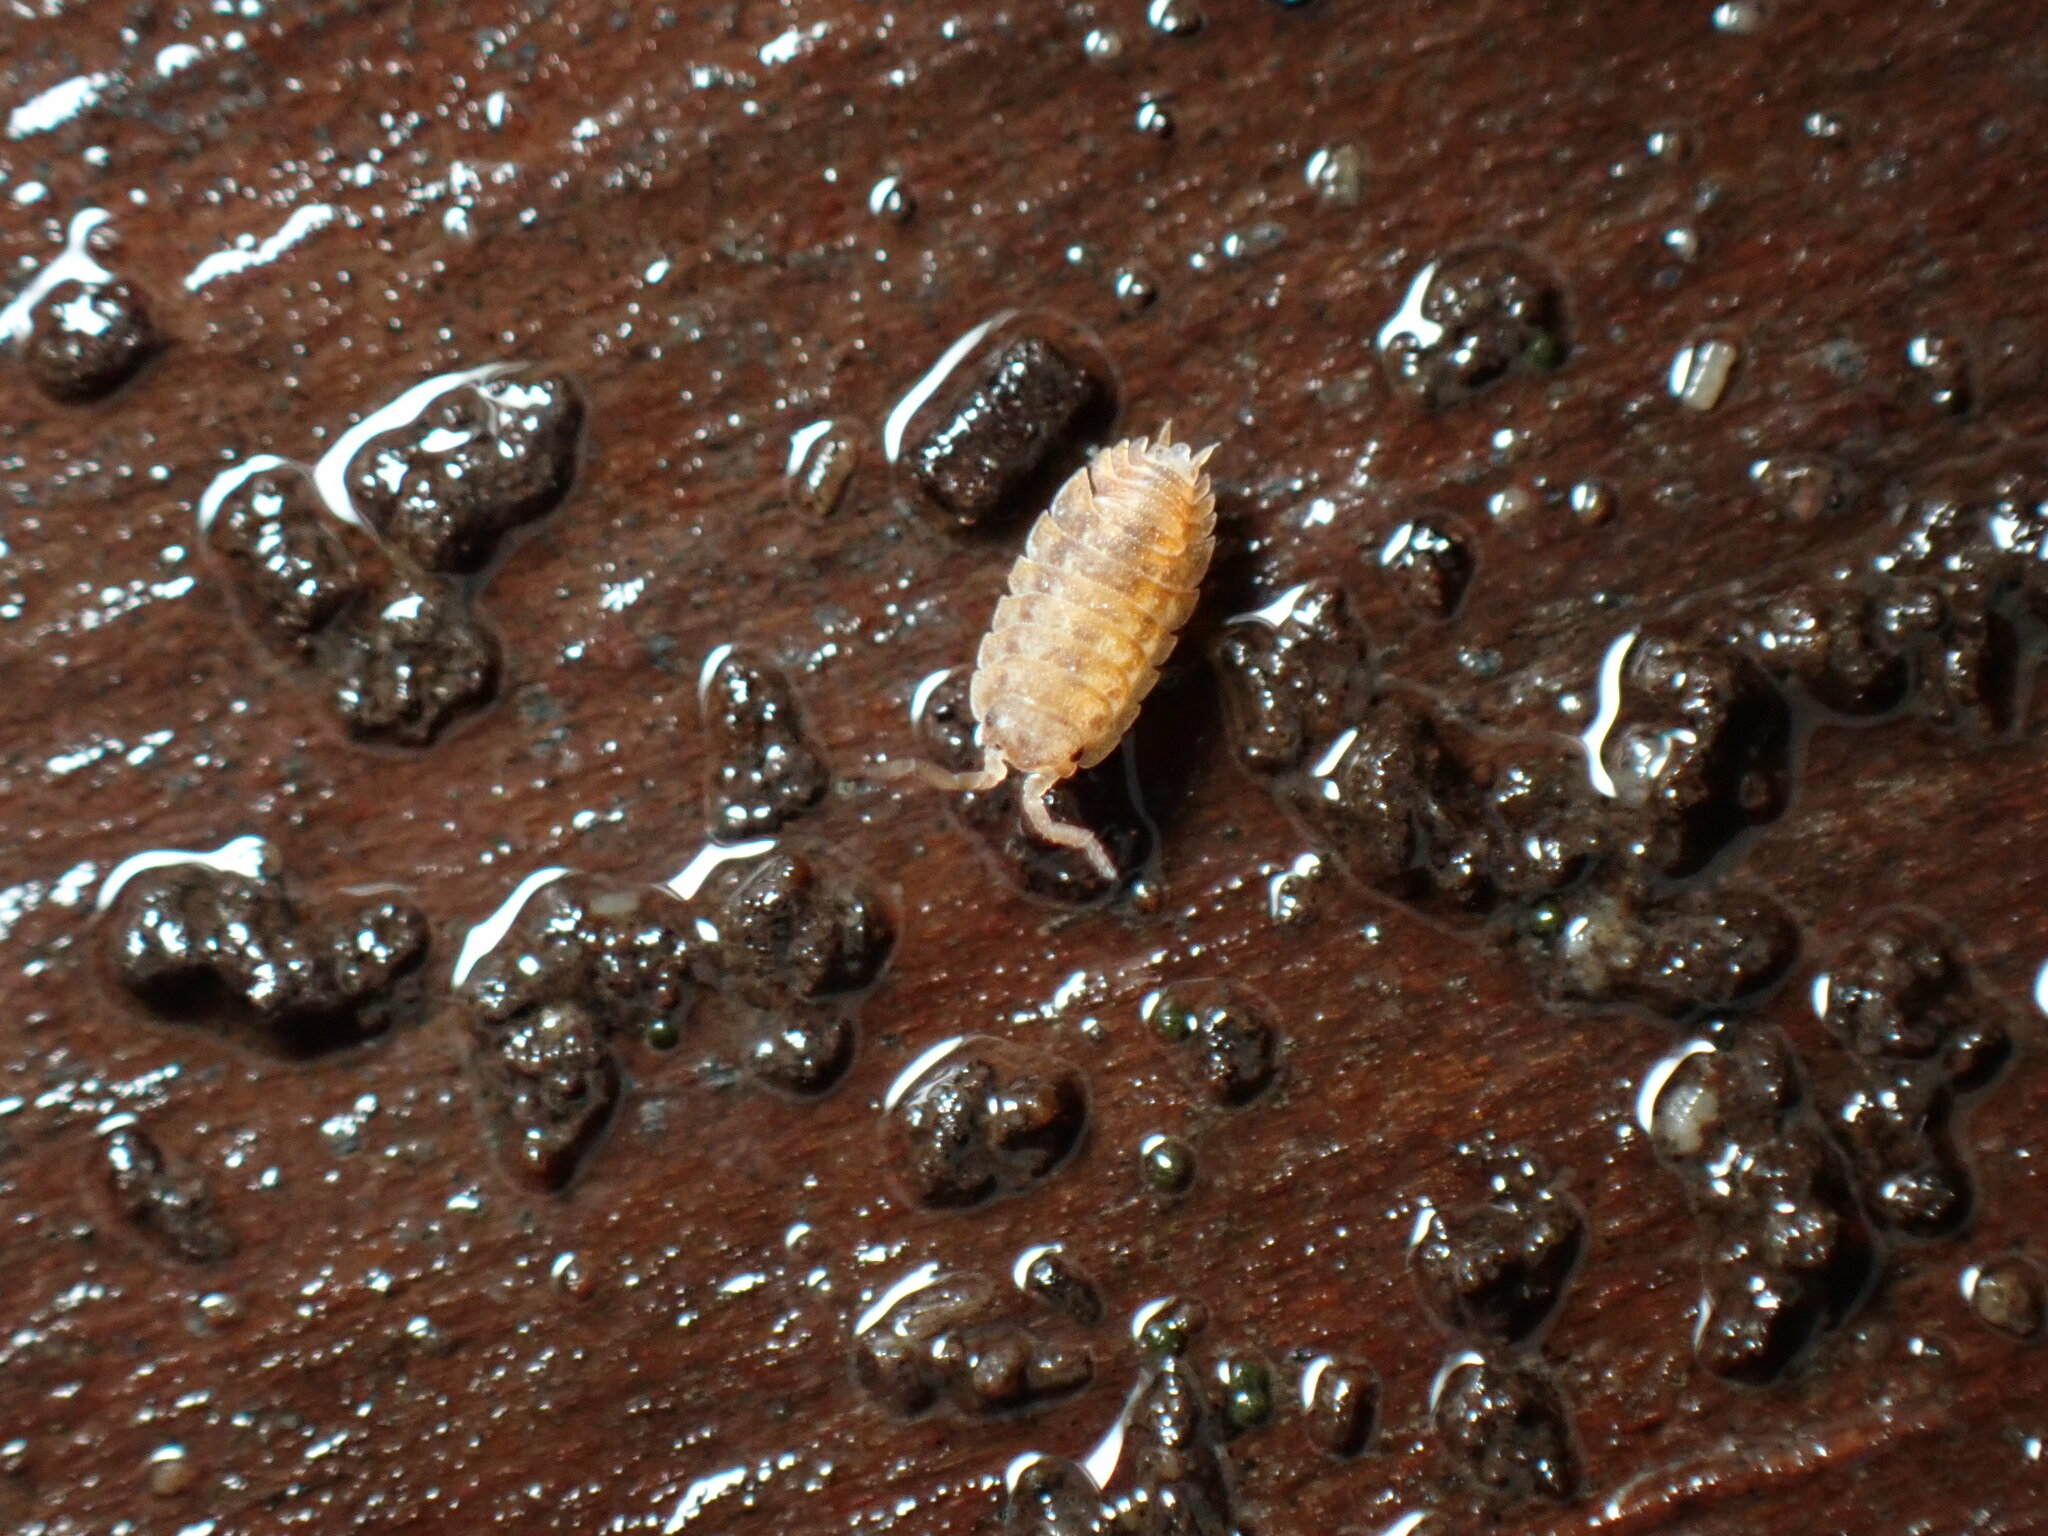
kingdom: Animalia
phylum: Arthropoda
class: Malacostraca
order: Isopoda
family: Oniscidae
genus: Oniscus
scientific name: Oniscus asellus
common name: Common shiny woodlouse
